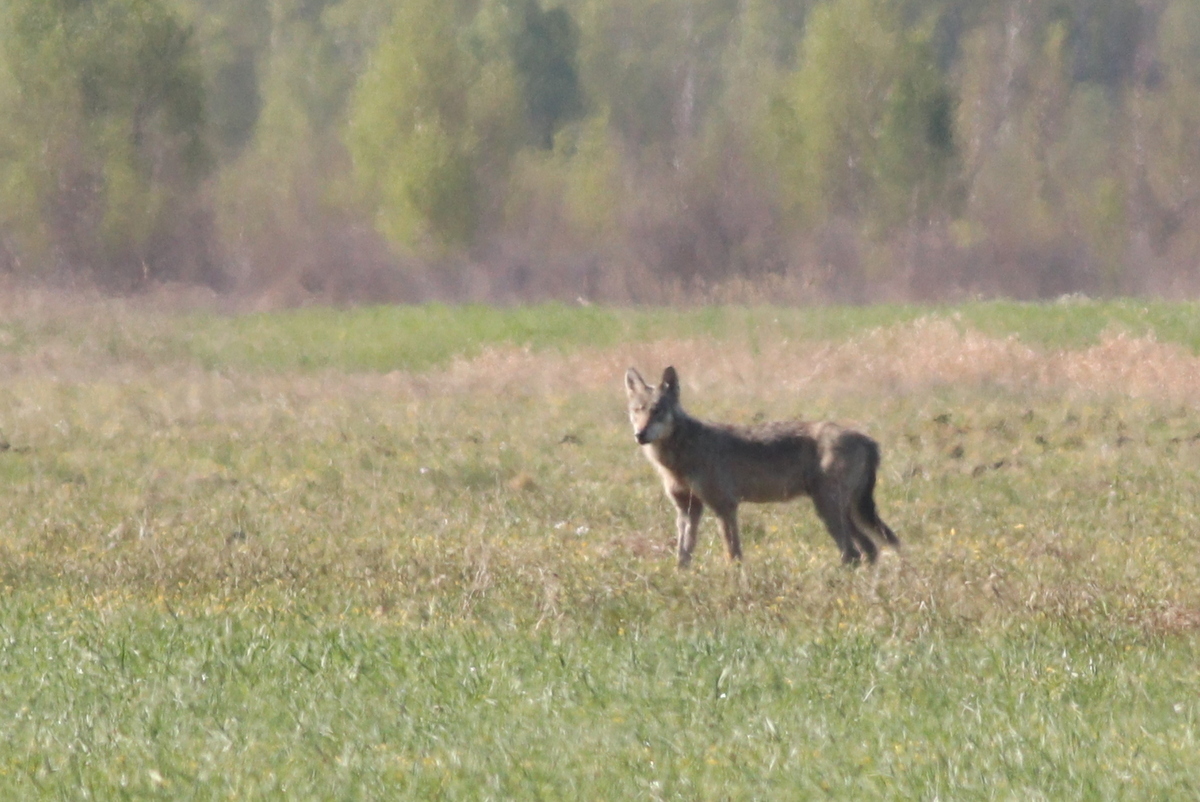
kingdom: Animalia
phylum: Chordata
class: Mammalia
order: Carnivora
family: Canidae
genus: Canis
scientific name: Canis lupus
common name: Gray wolf
